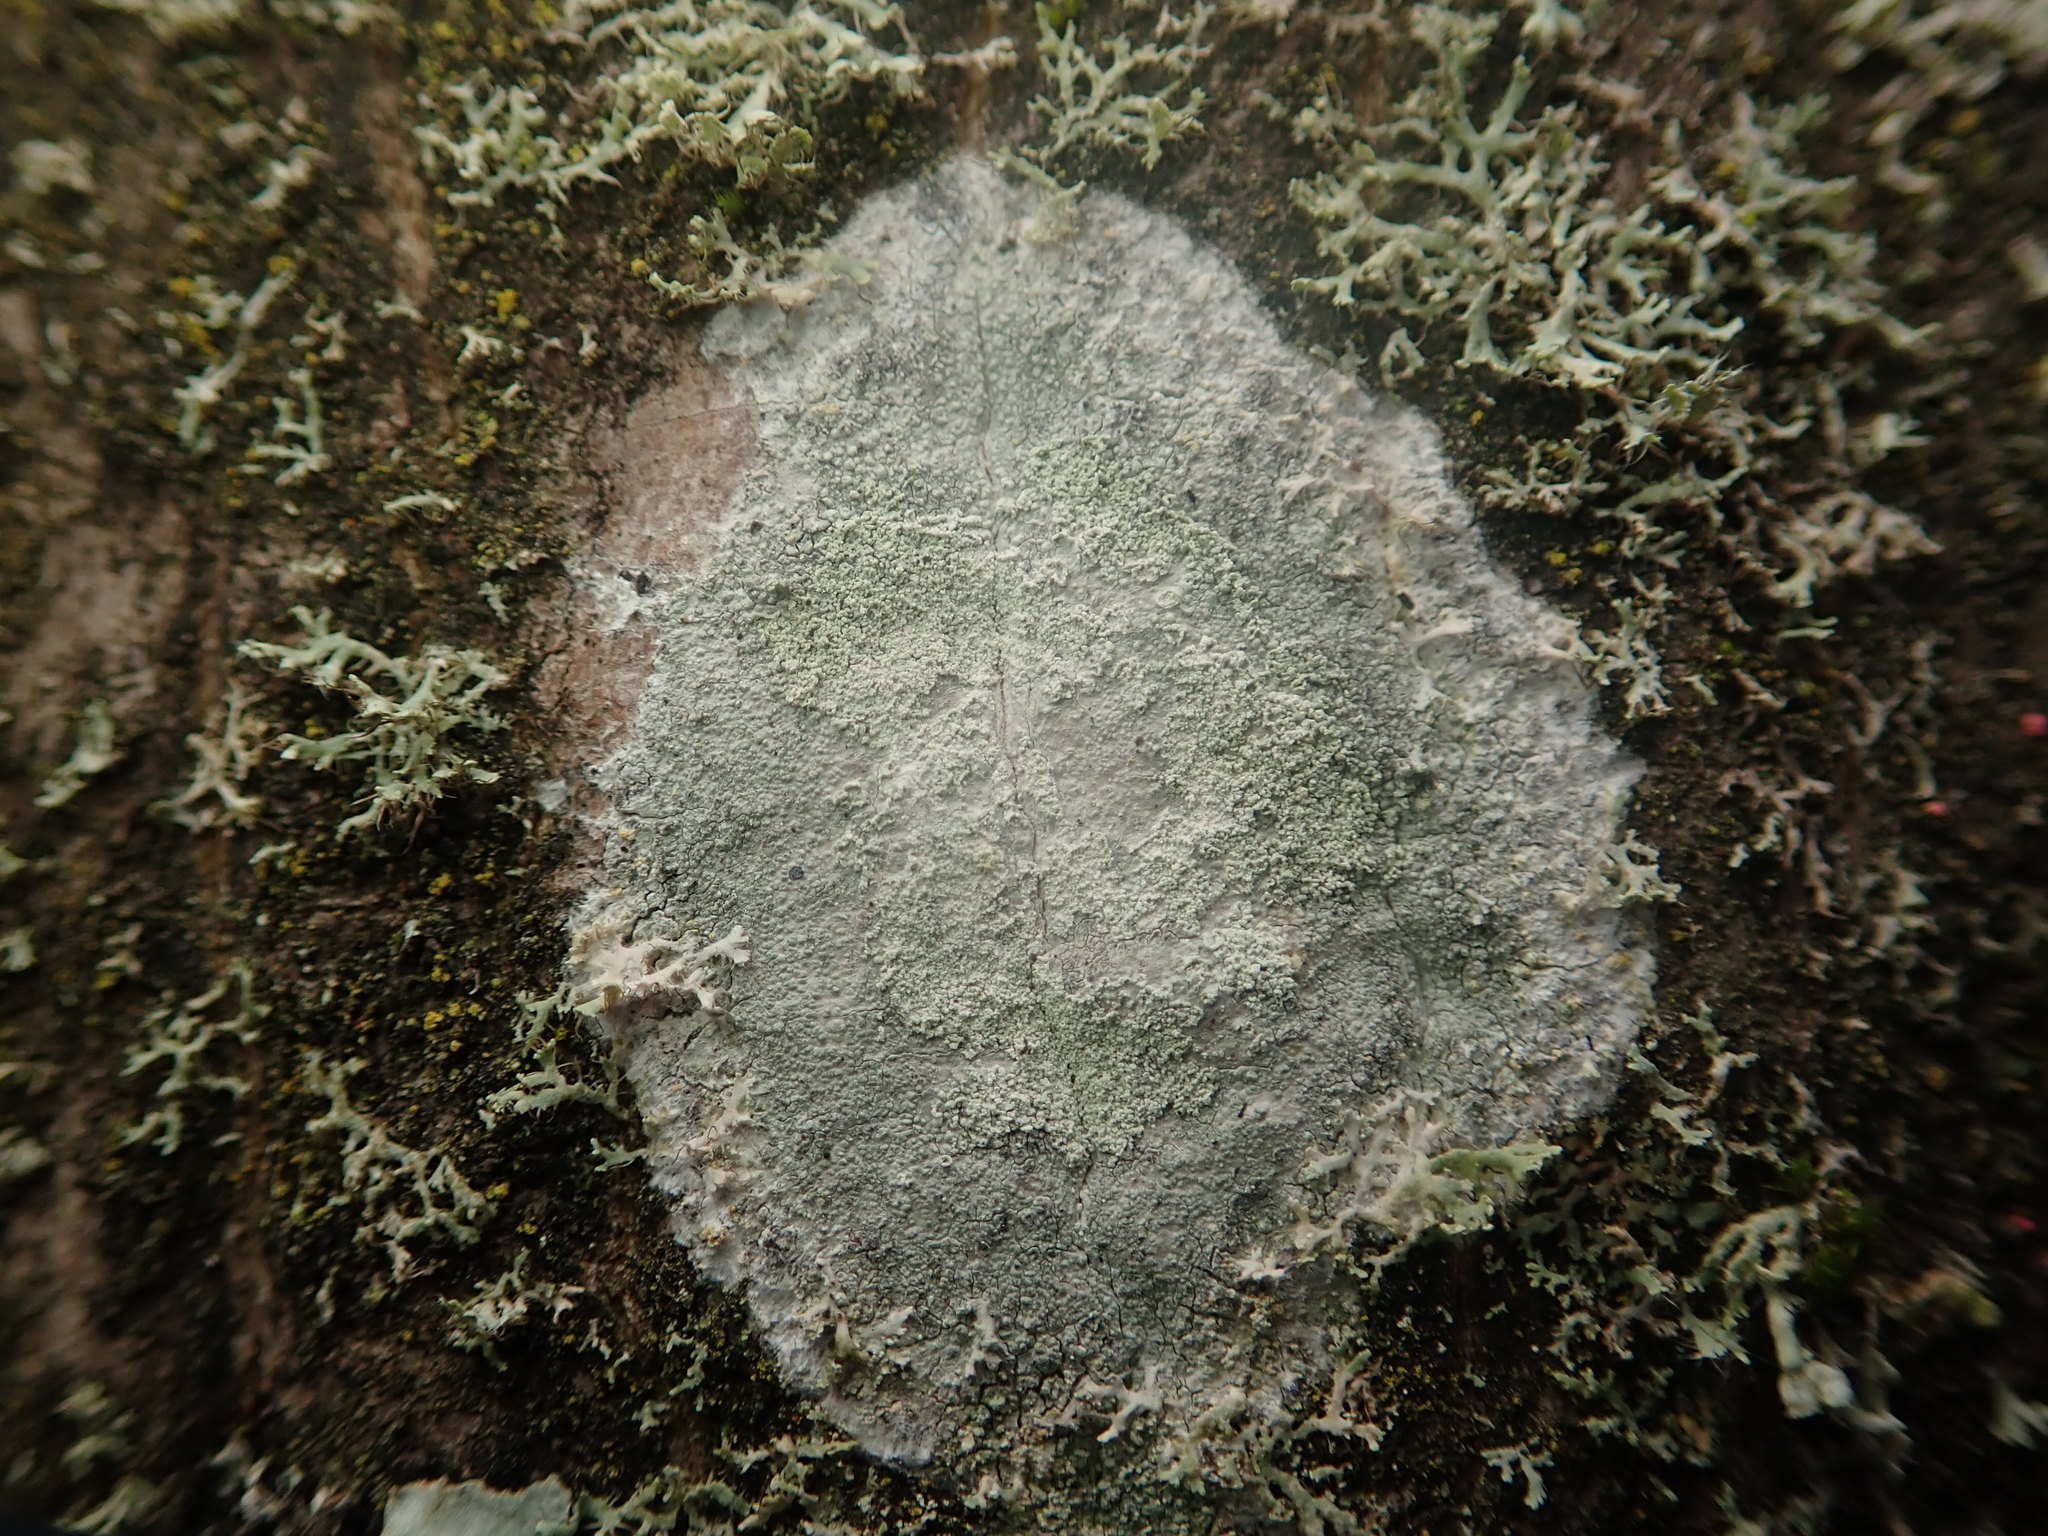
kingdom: Fungi
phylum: Ascomycota
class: Lecanoromycetes
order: Ostropales
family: Phlyctidaceae
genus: Phlyctis
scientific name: Phlyctis argena
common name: Whitewash lichen
